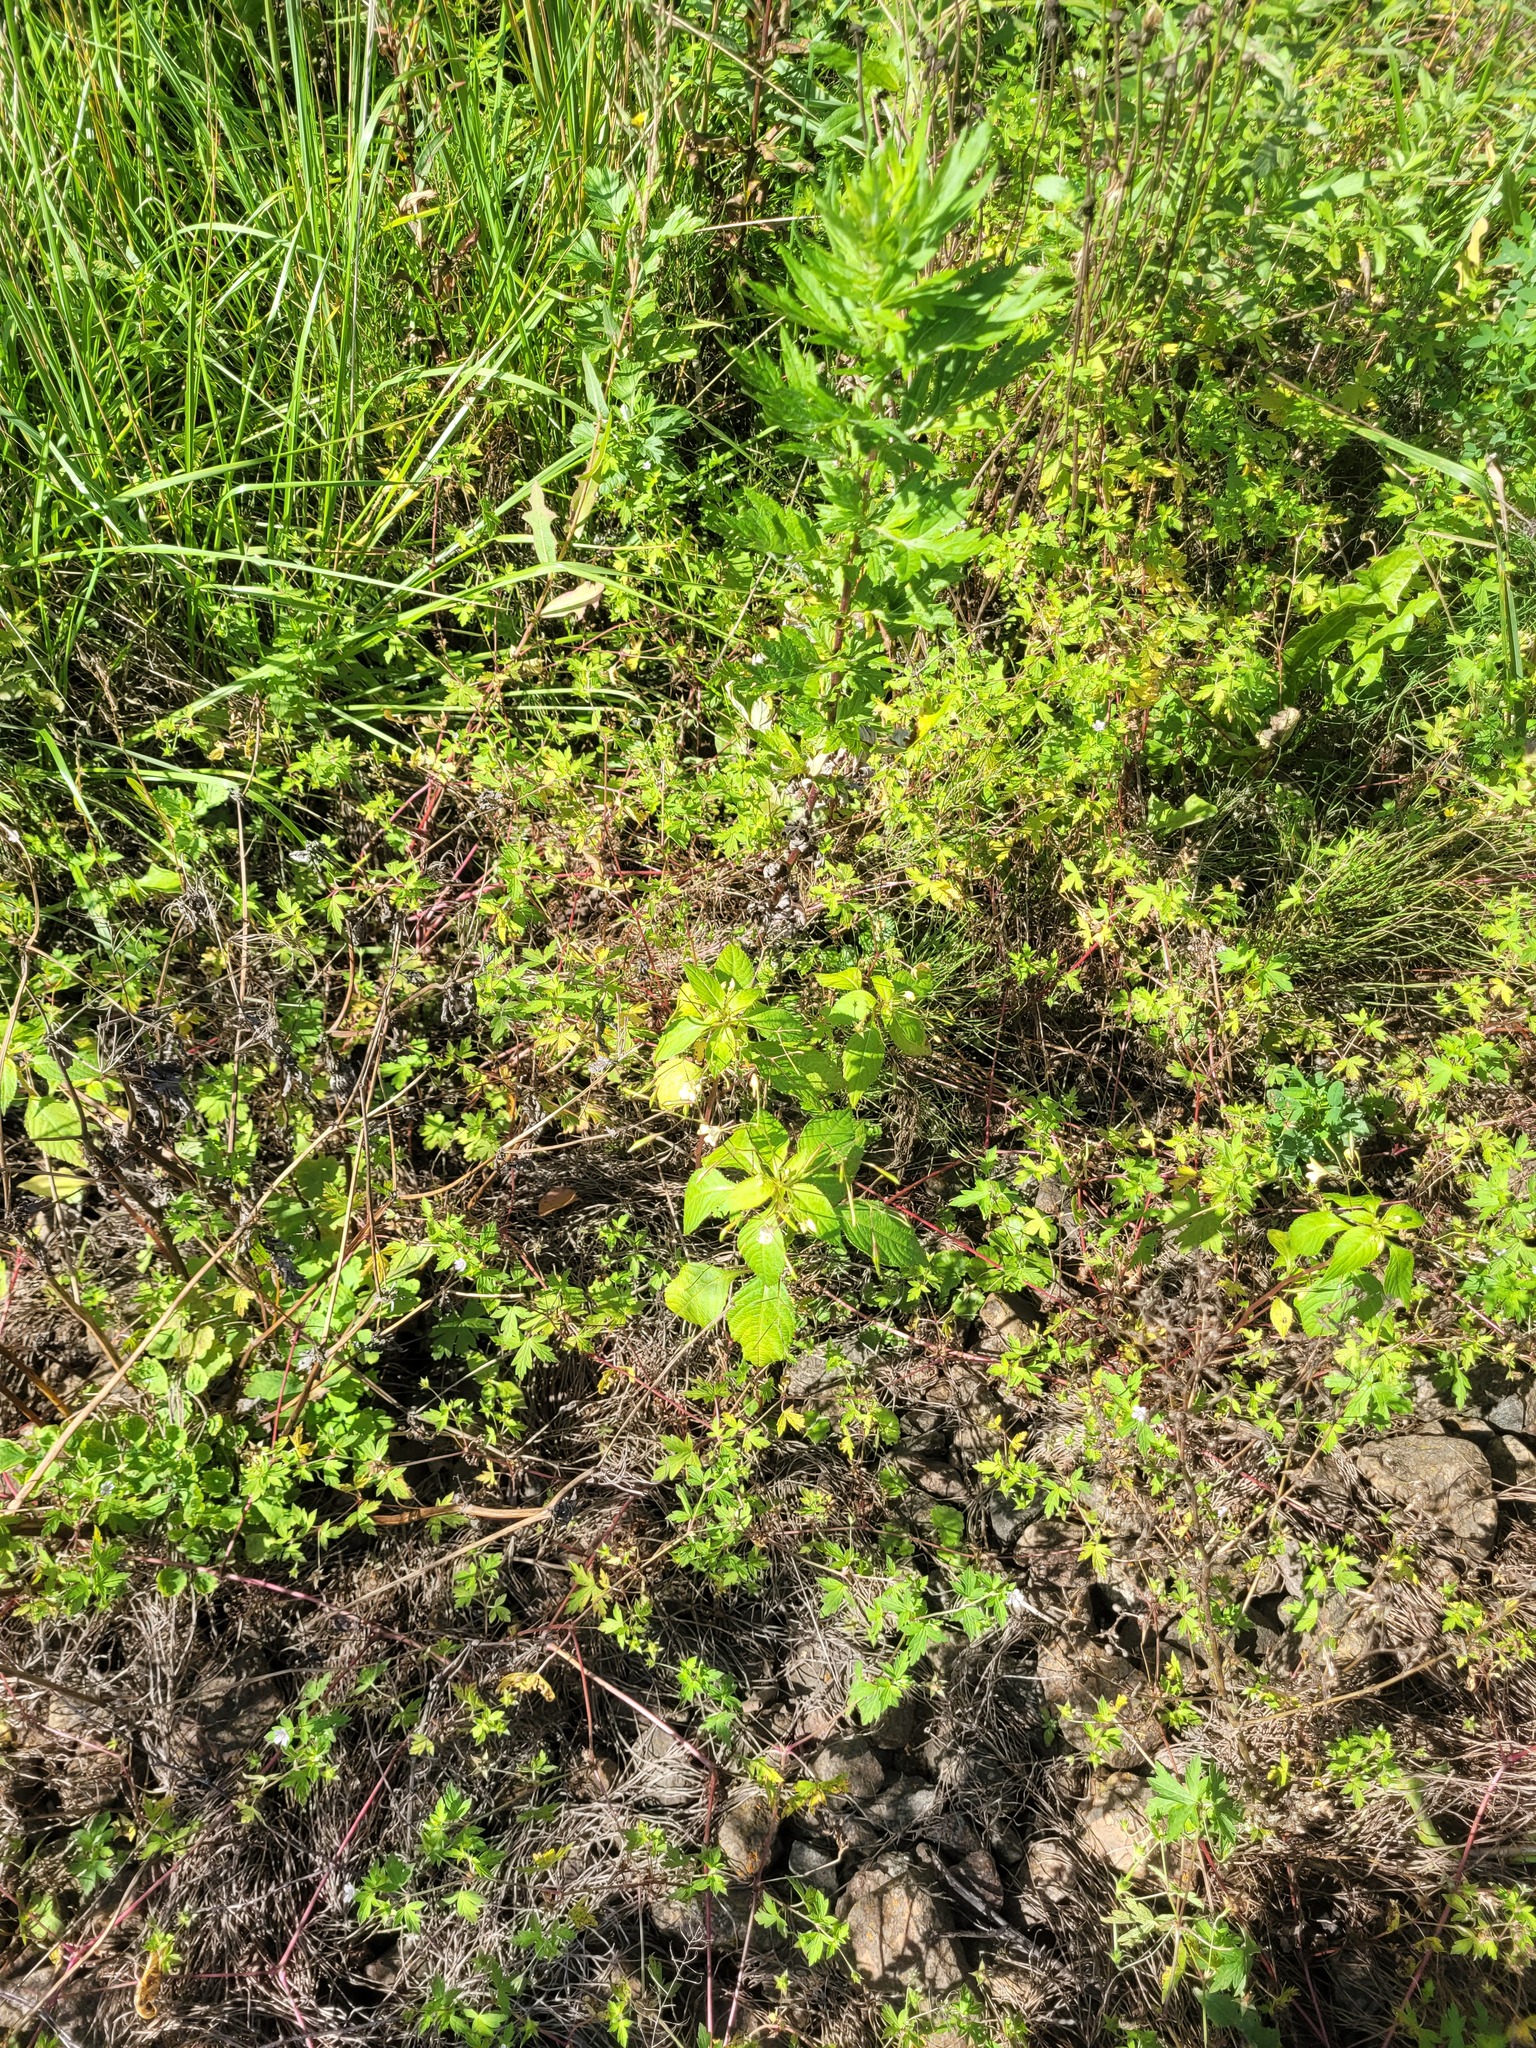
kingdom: Plantae
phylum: Tracheophyta
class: Magnoliopsida
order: Ericales
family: Balsaminaceae
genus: Impatiens
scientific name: Impatiens parviflora
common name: Small balsam
